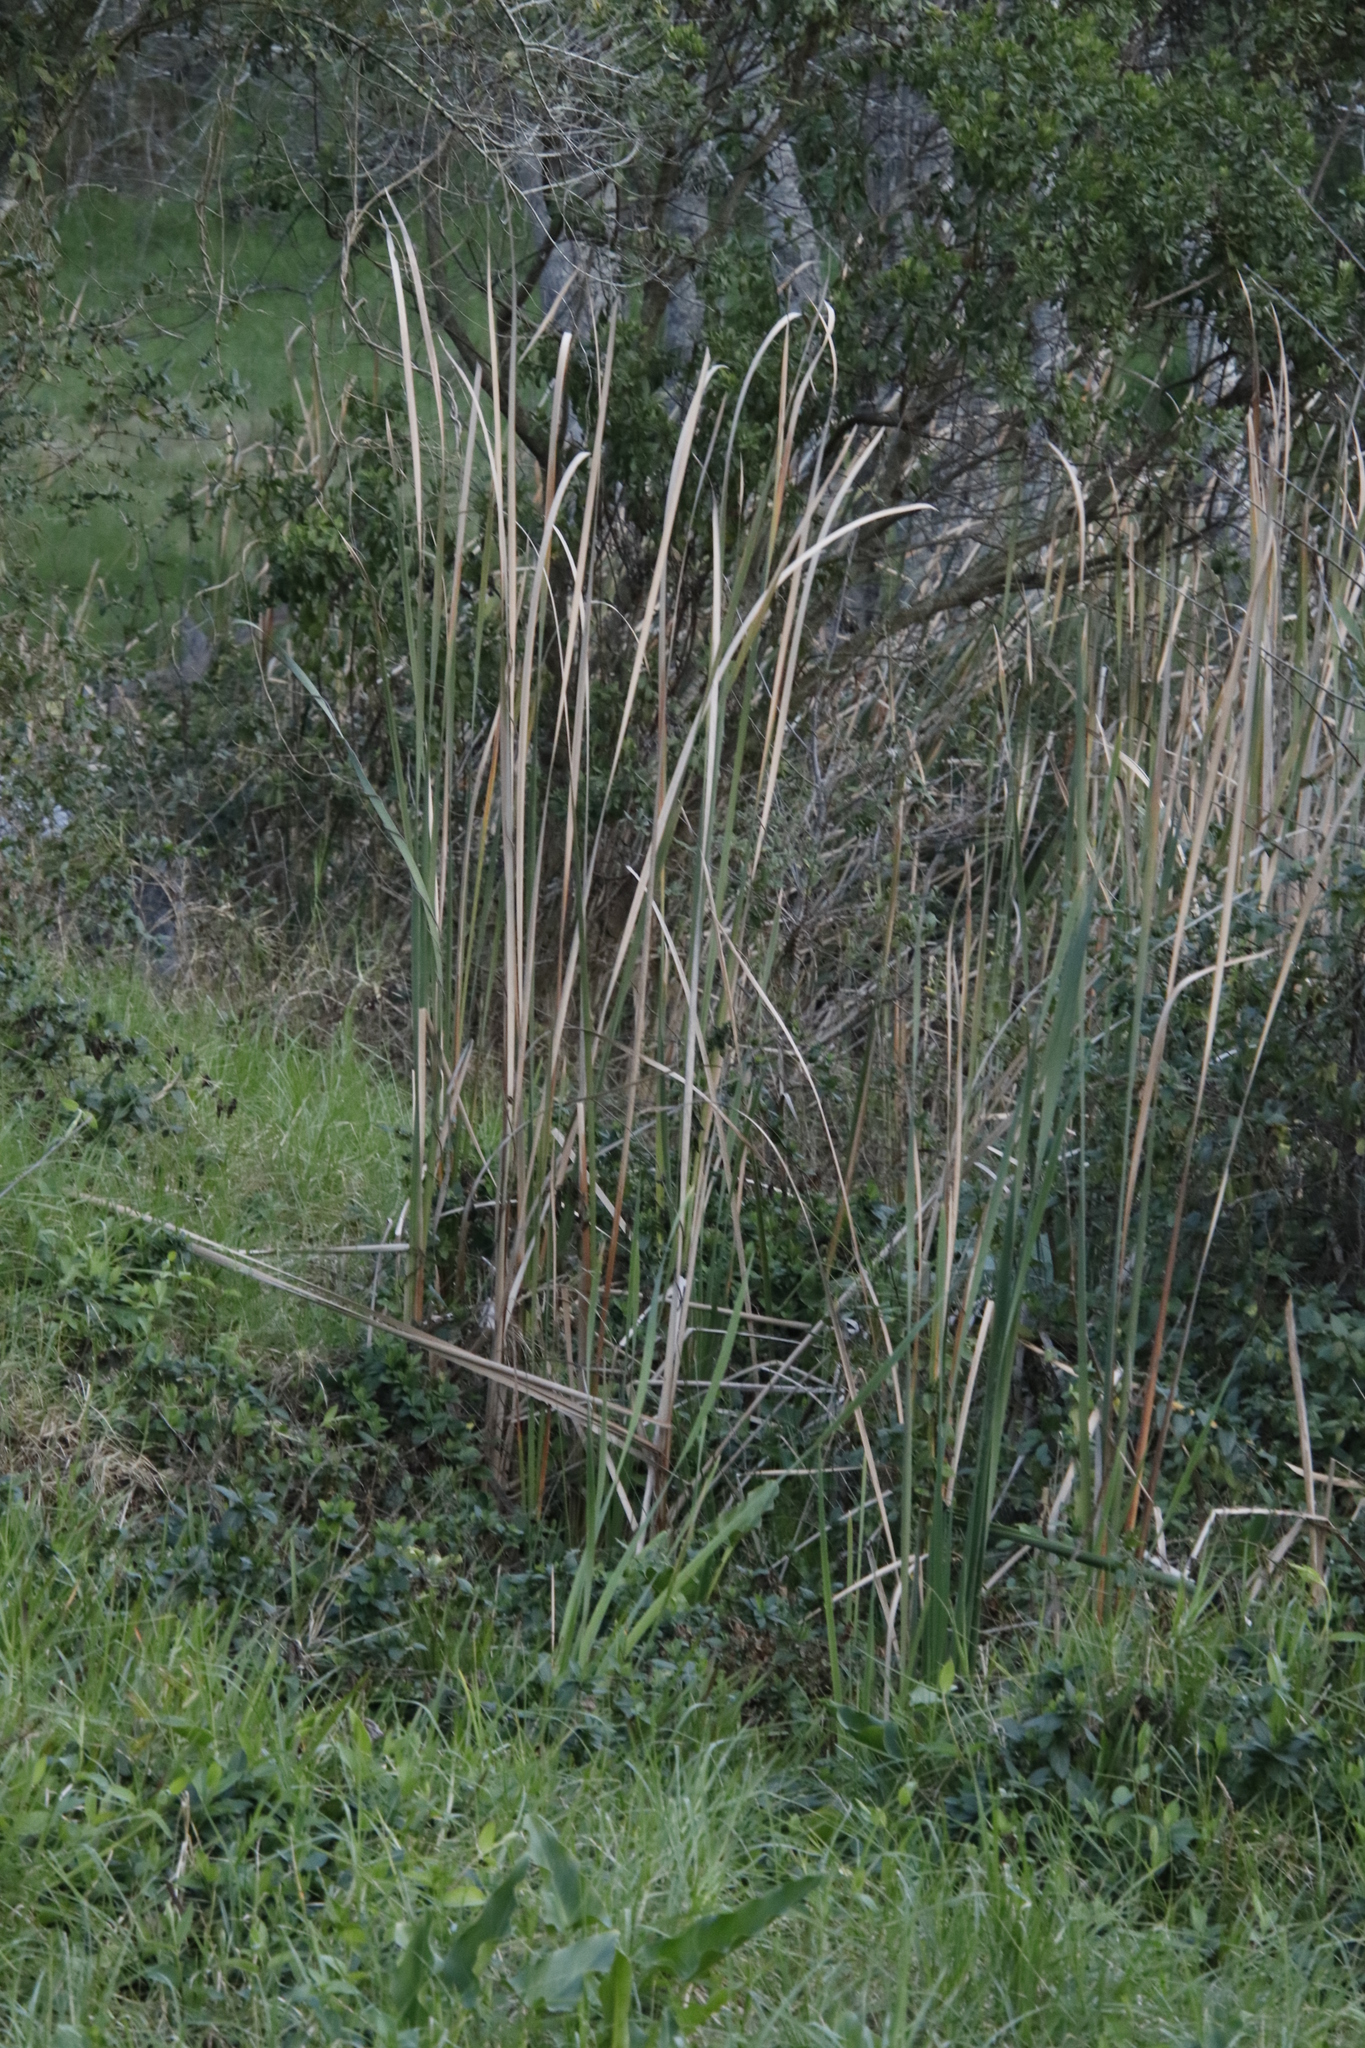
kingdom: Plantae
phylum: Tracheophyta
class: Liliopsida
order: Poales
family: Typhaceae
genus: Typha
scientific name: Typha capensis
